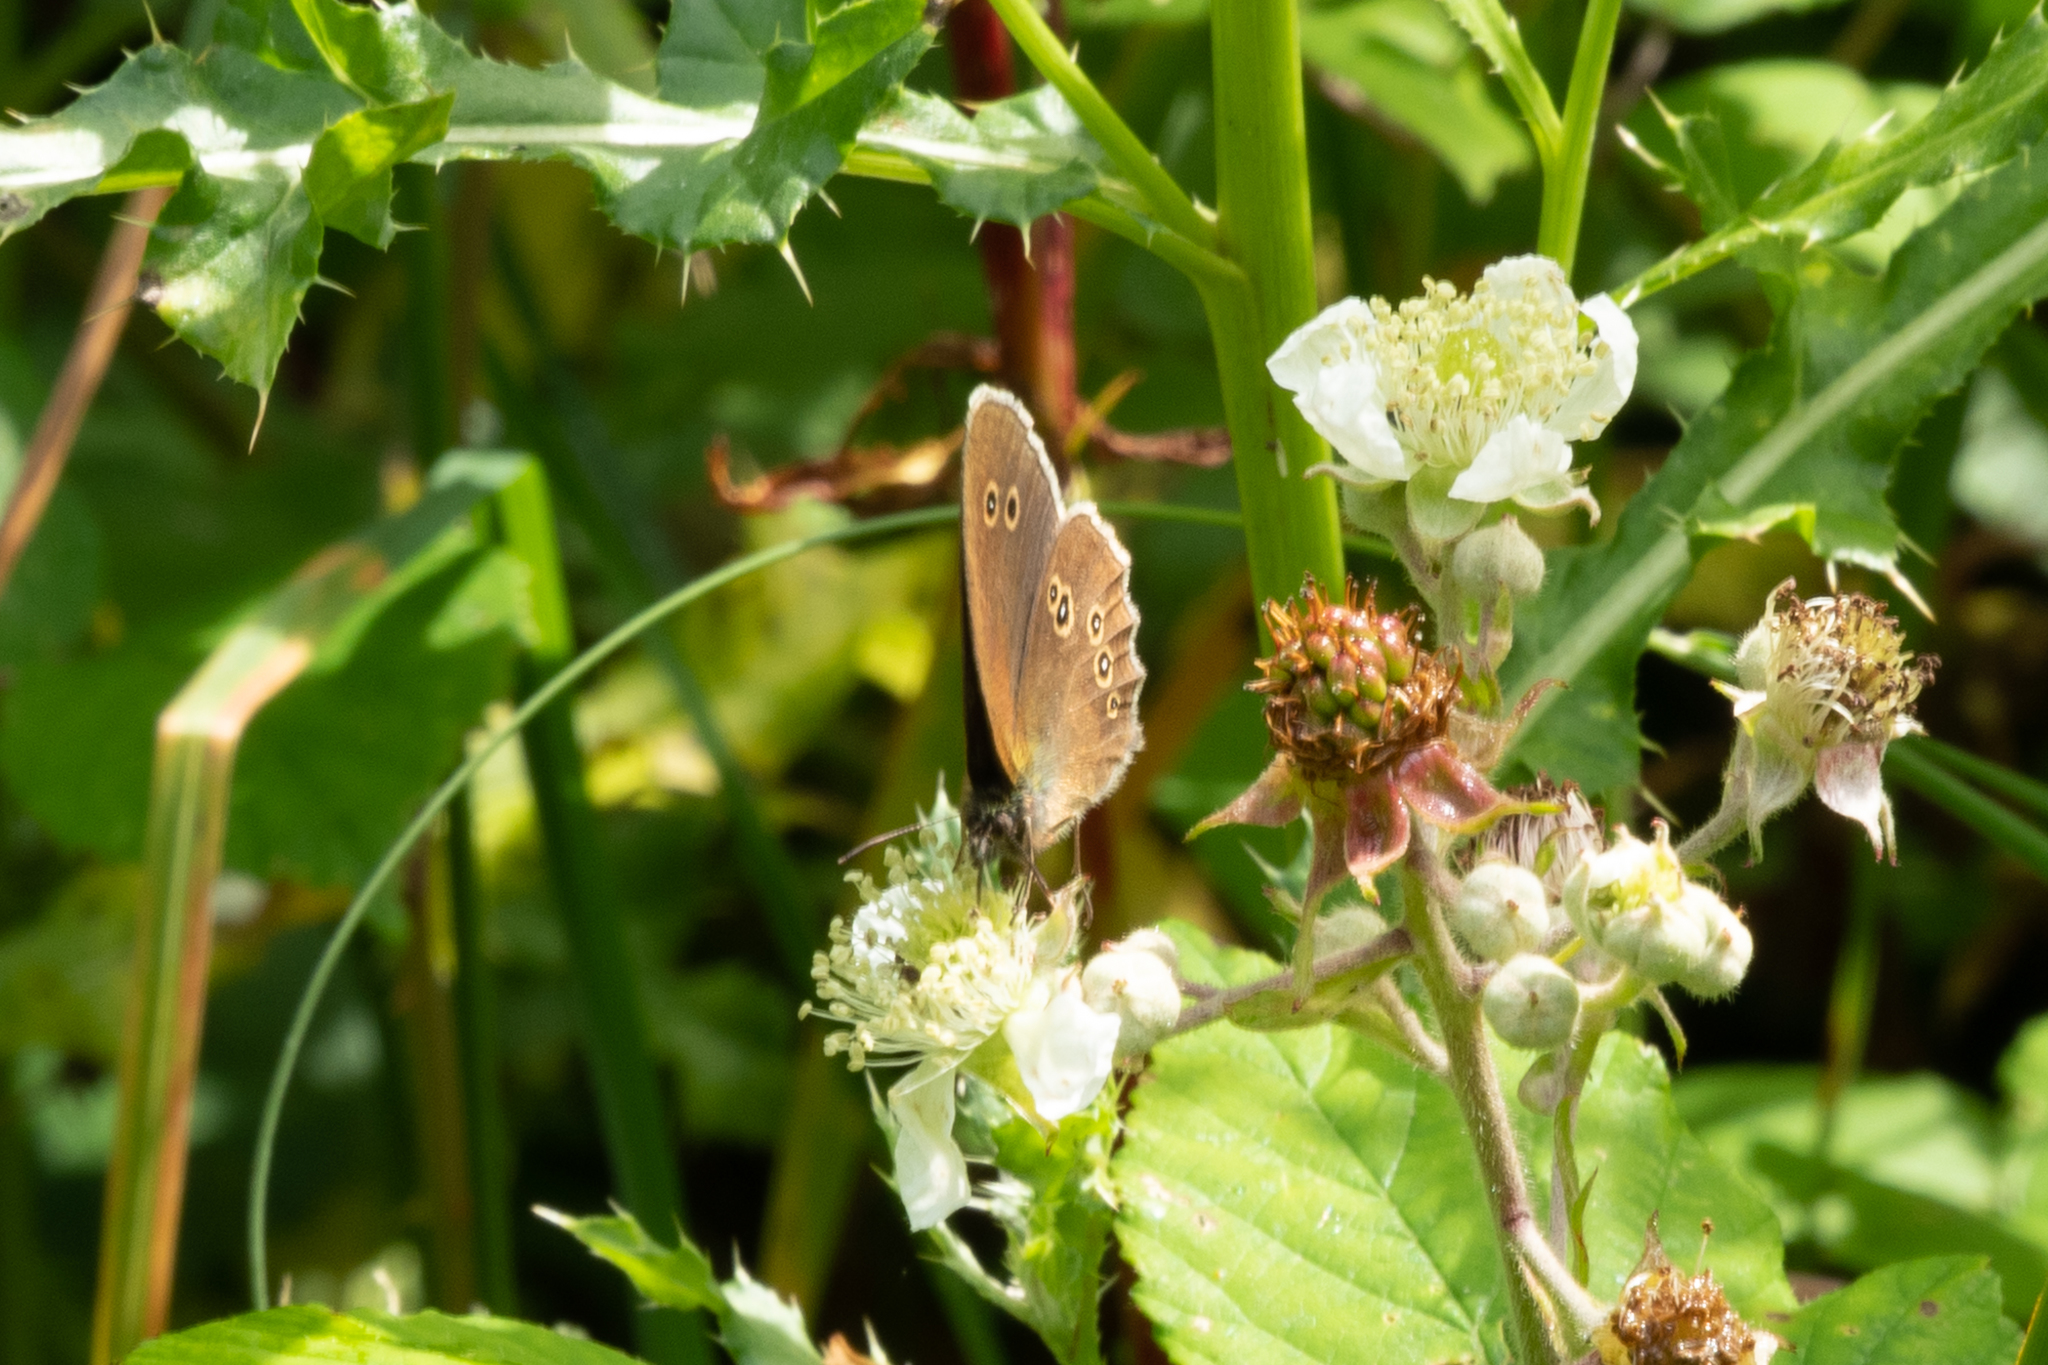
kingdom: Animalia
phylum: Arthropoda
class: Insecta
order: Lepidoptera
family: Nymphalidae
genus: Aphantopus
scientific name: Aphantopus hyperantus
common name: Ringlet
